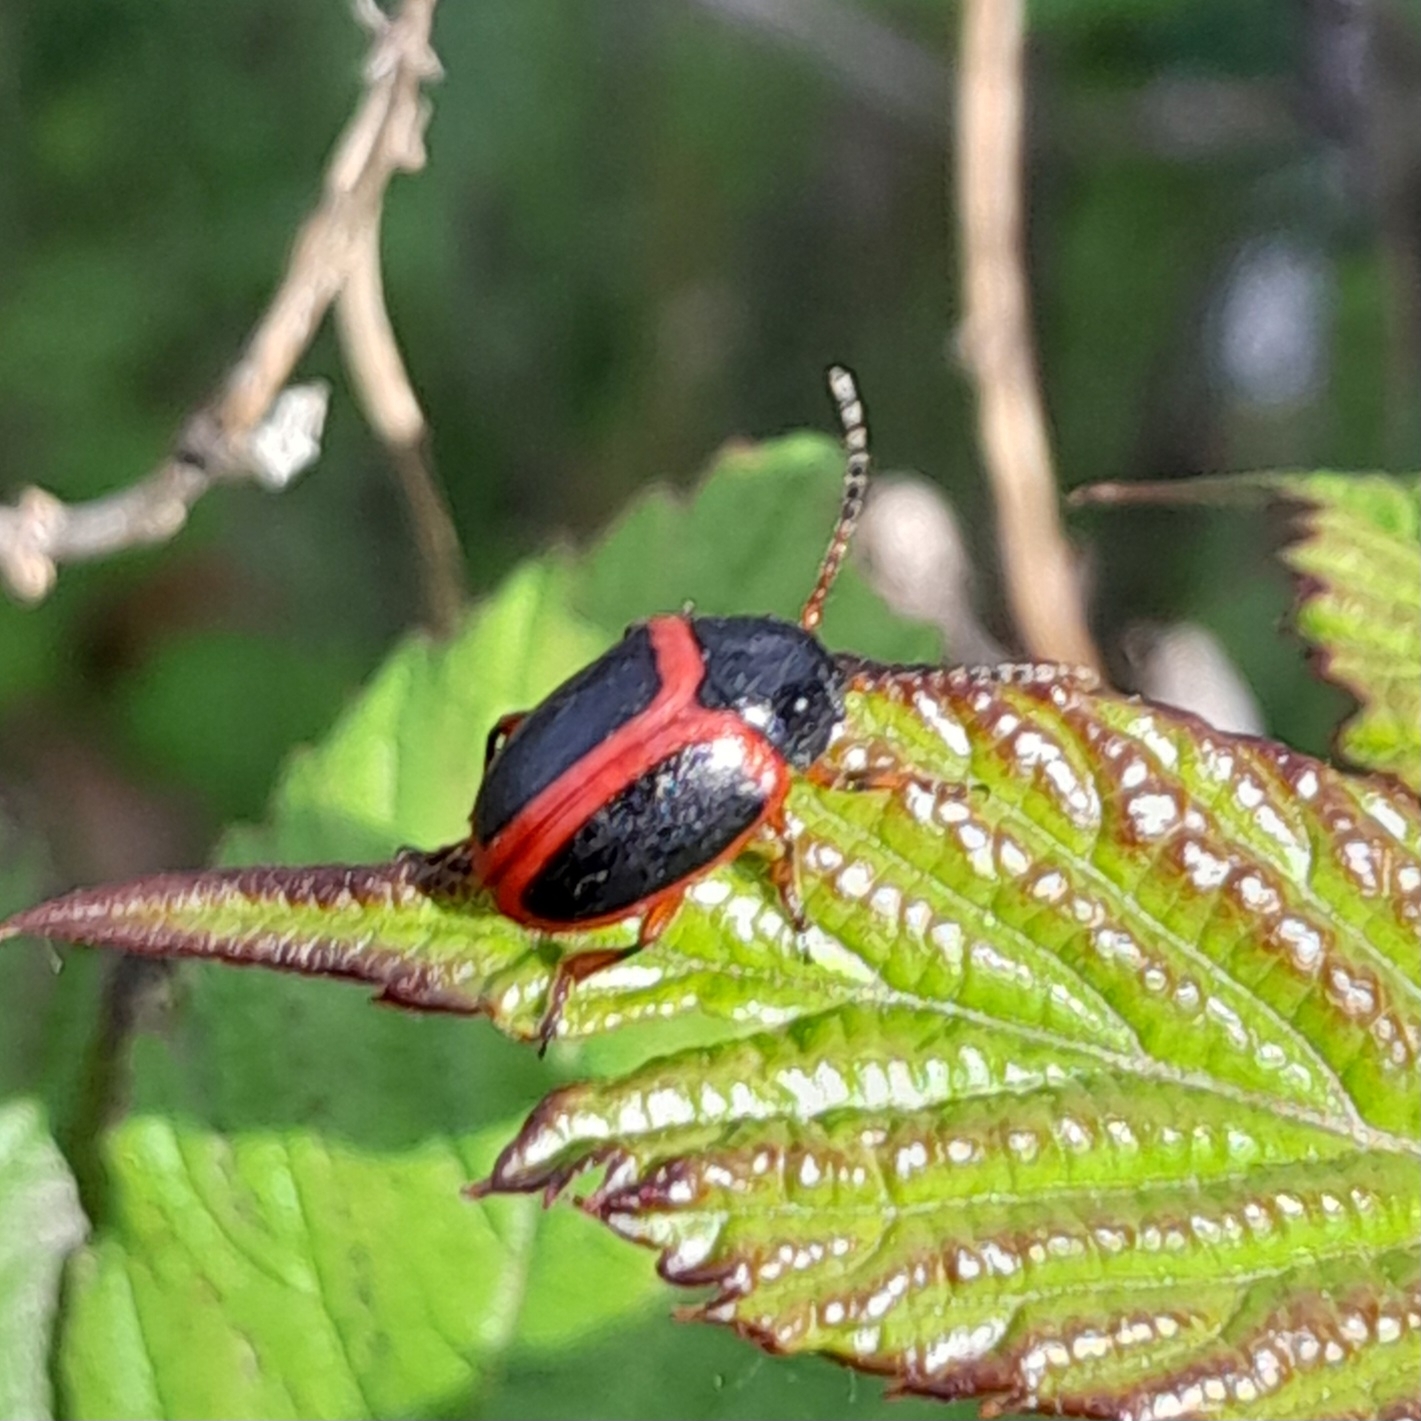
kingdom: Animalia
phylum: Arthropoda
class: Insecta
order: Coleoptera
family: Chrysomelidae
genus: Colaspidema
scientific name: Colaspidema dufouri
